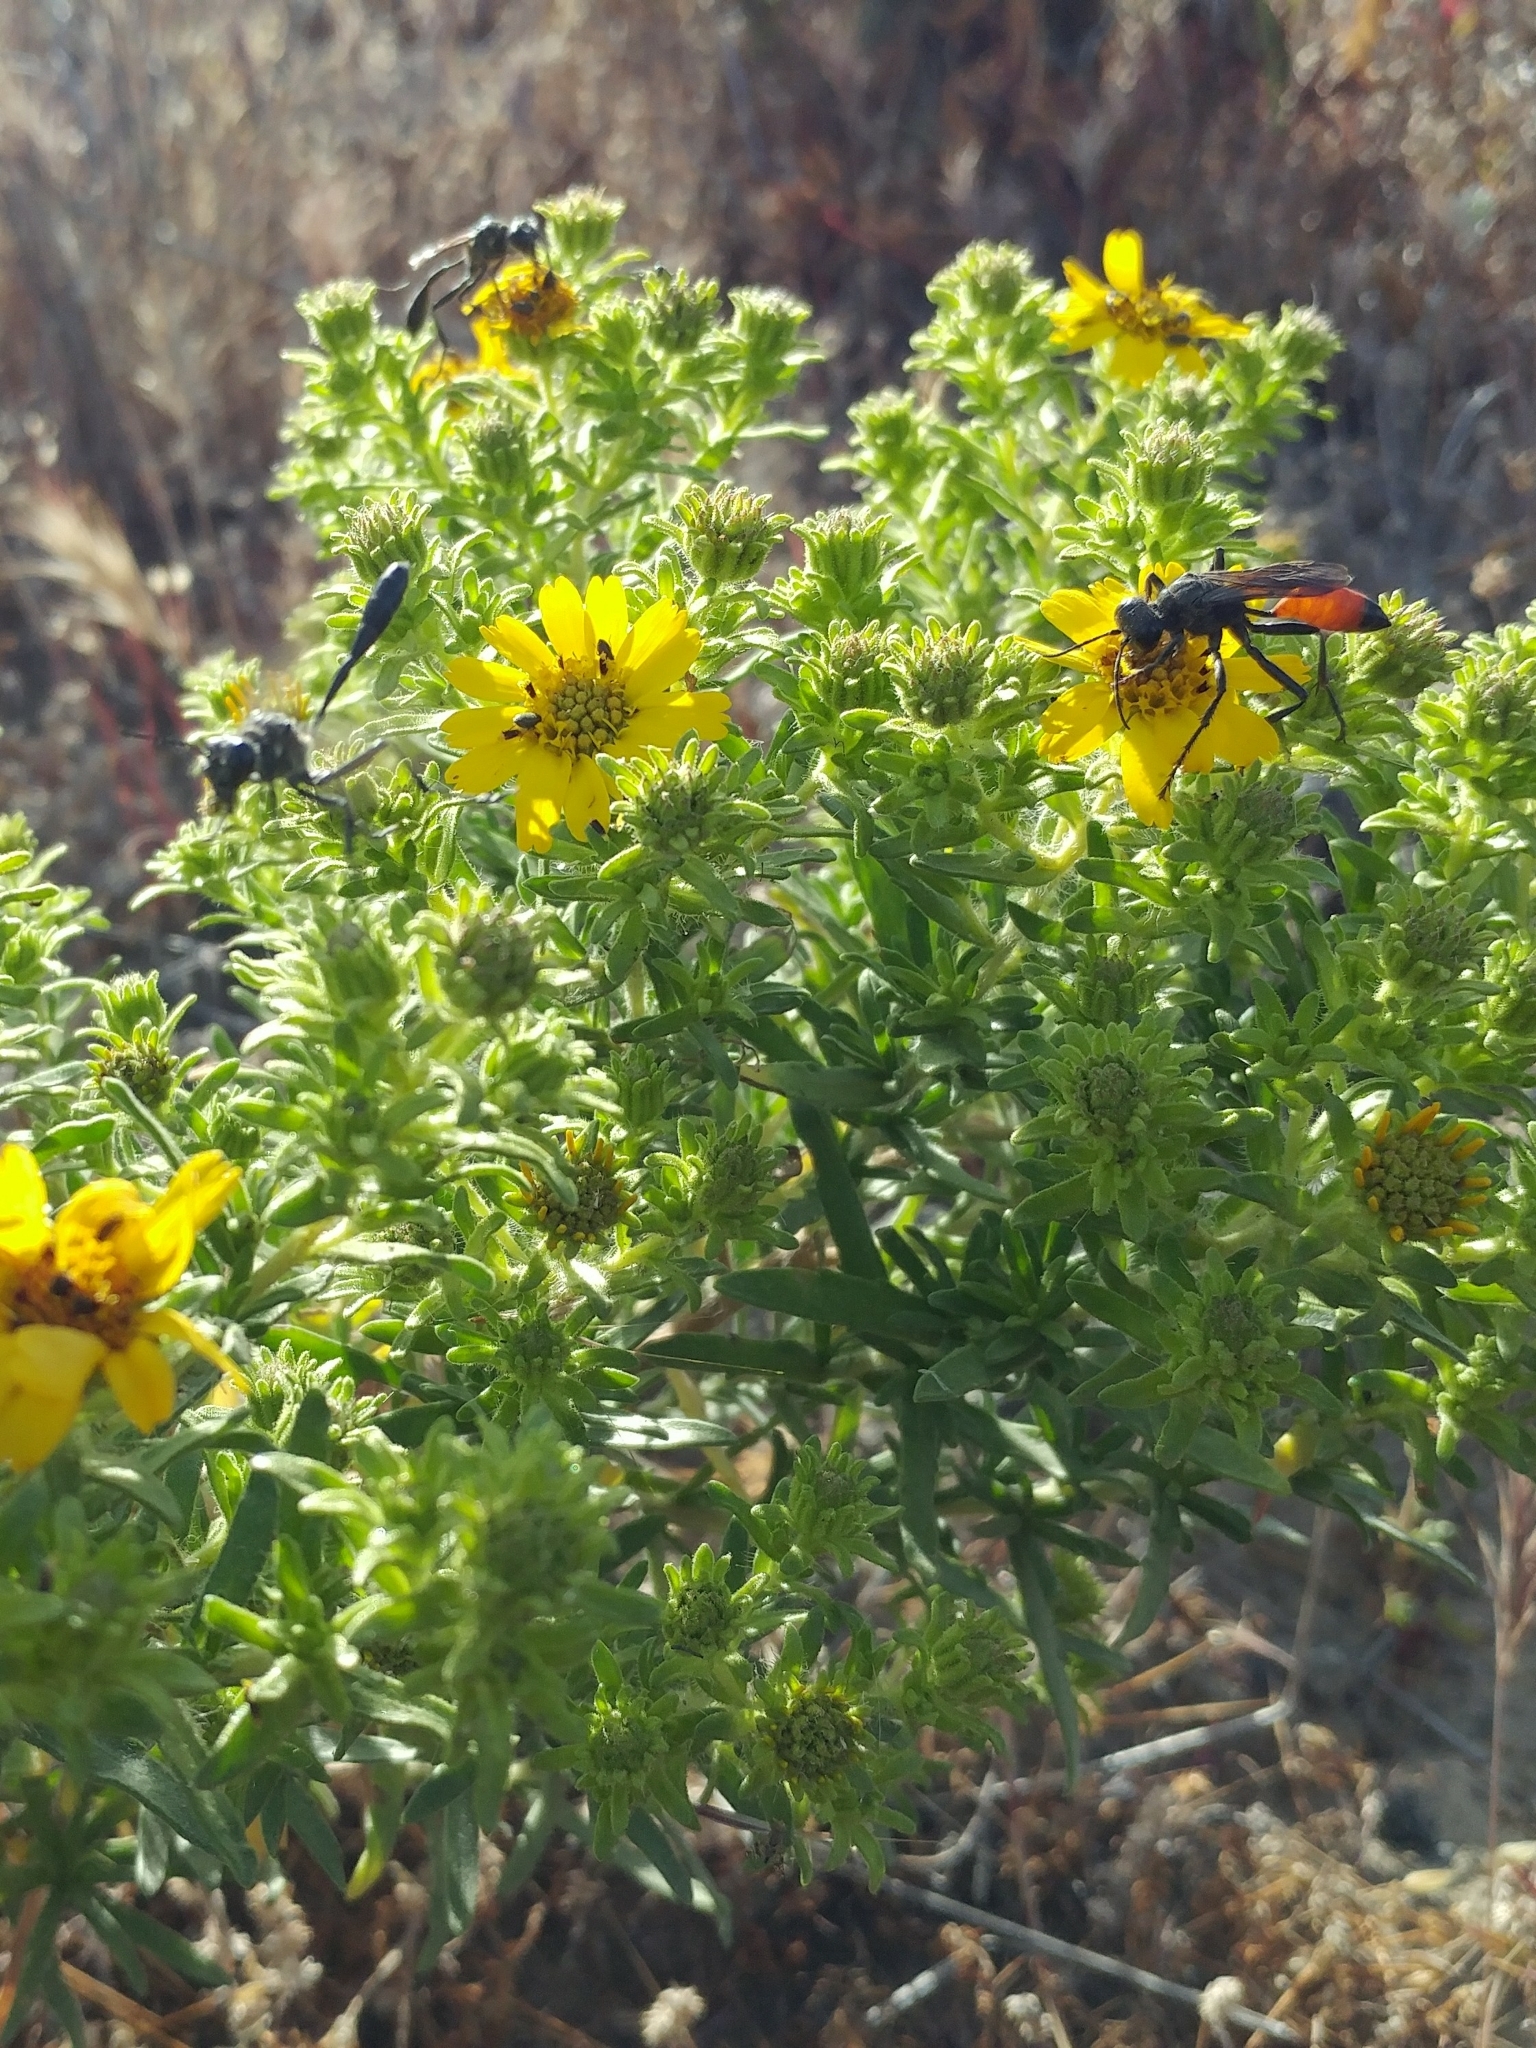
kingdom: Plantae
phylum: Tracheophyta
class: Magnoliopsida
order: Asterales
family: Asteraceae
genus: Deinandra
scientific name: Deinandra clementina
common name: Island tarplant
